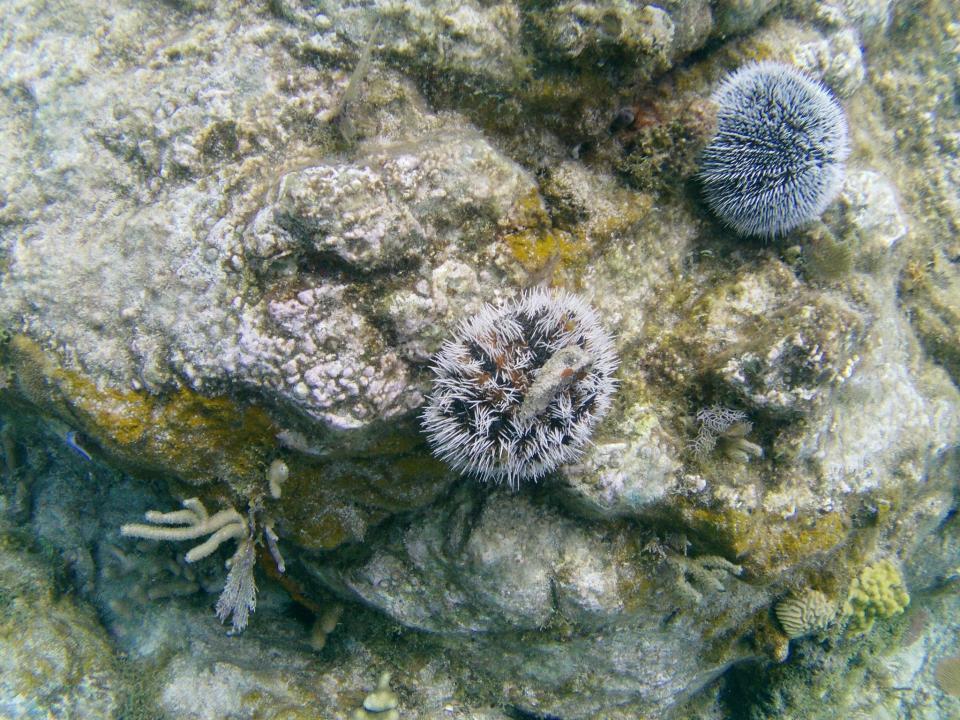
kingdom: Animalia
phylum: Echinodermata
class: Echinoidea
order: Camarodonta
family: Toxopneustidae
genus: Tripneustes
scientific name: Tripneustes ventricosus
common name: West indian sea egg
